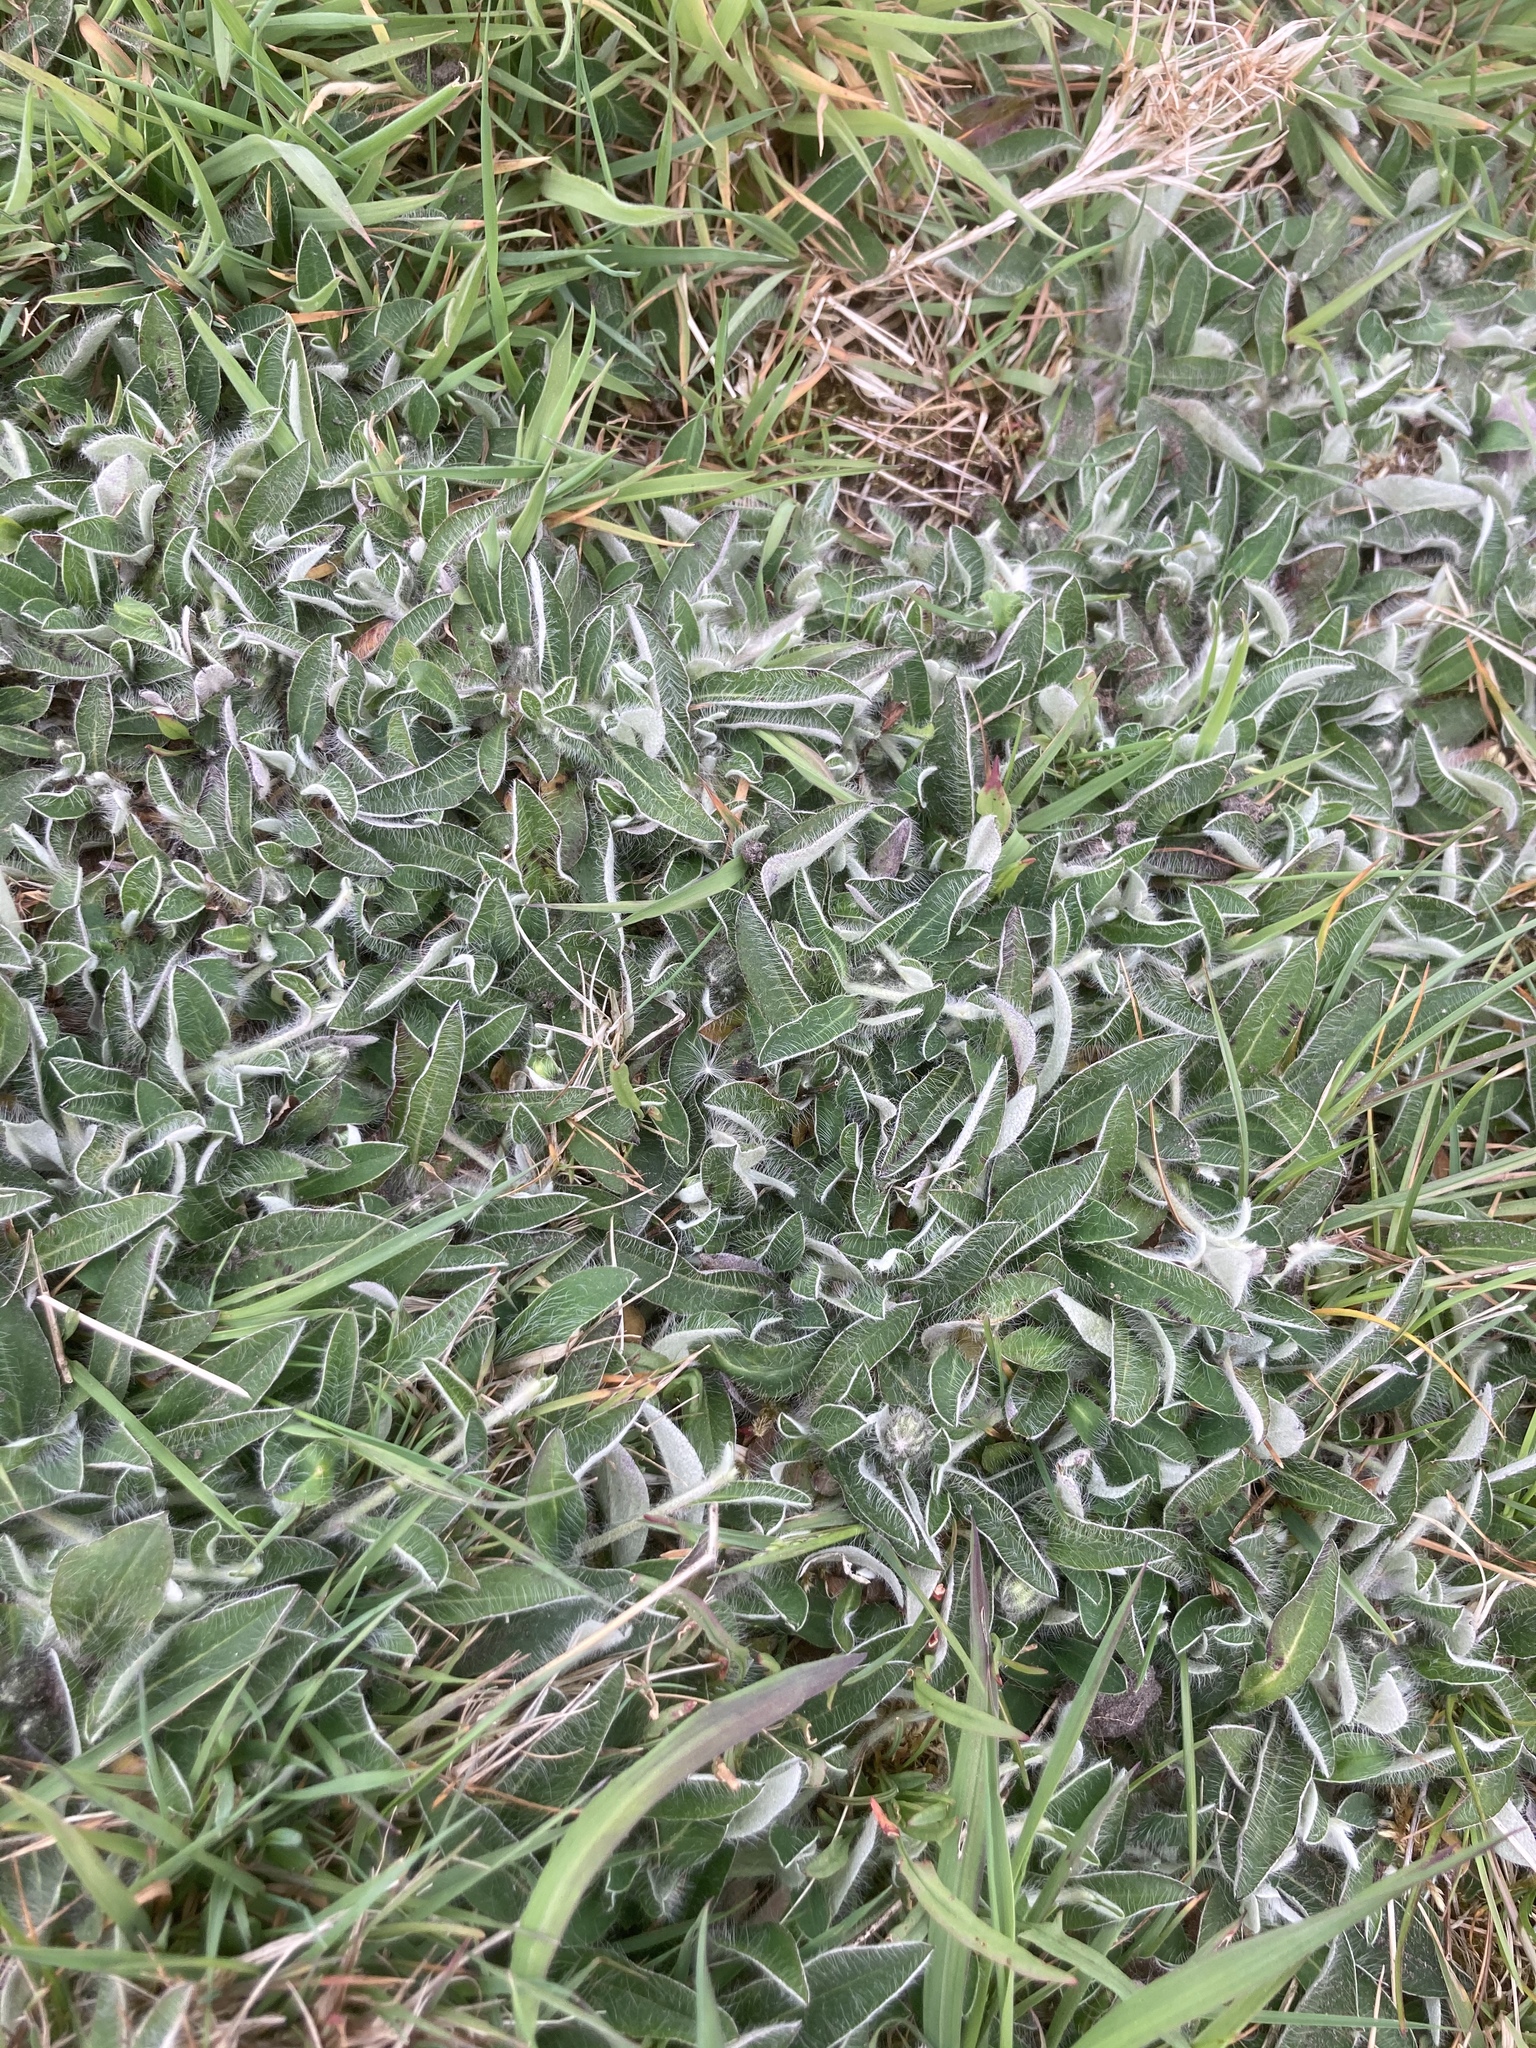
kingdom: Plantae
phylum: Tracheophyta
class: Magnoliopsida
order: Asterales
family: Asteraceae
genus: Pilosella
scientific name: Pilosella officinarum
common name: Mouse-ear hawkweed
